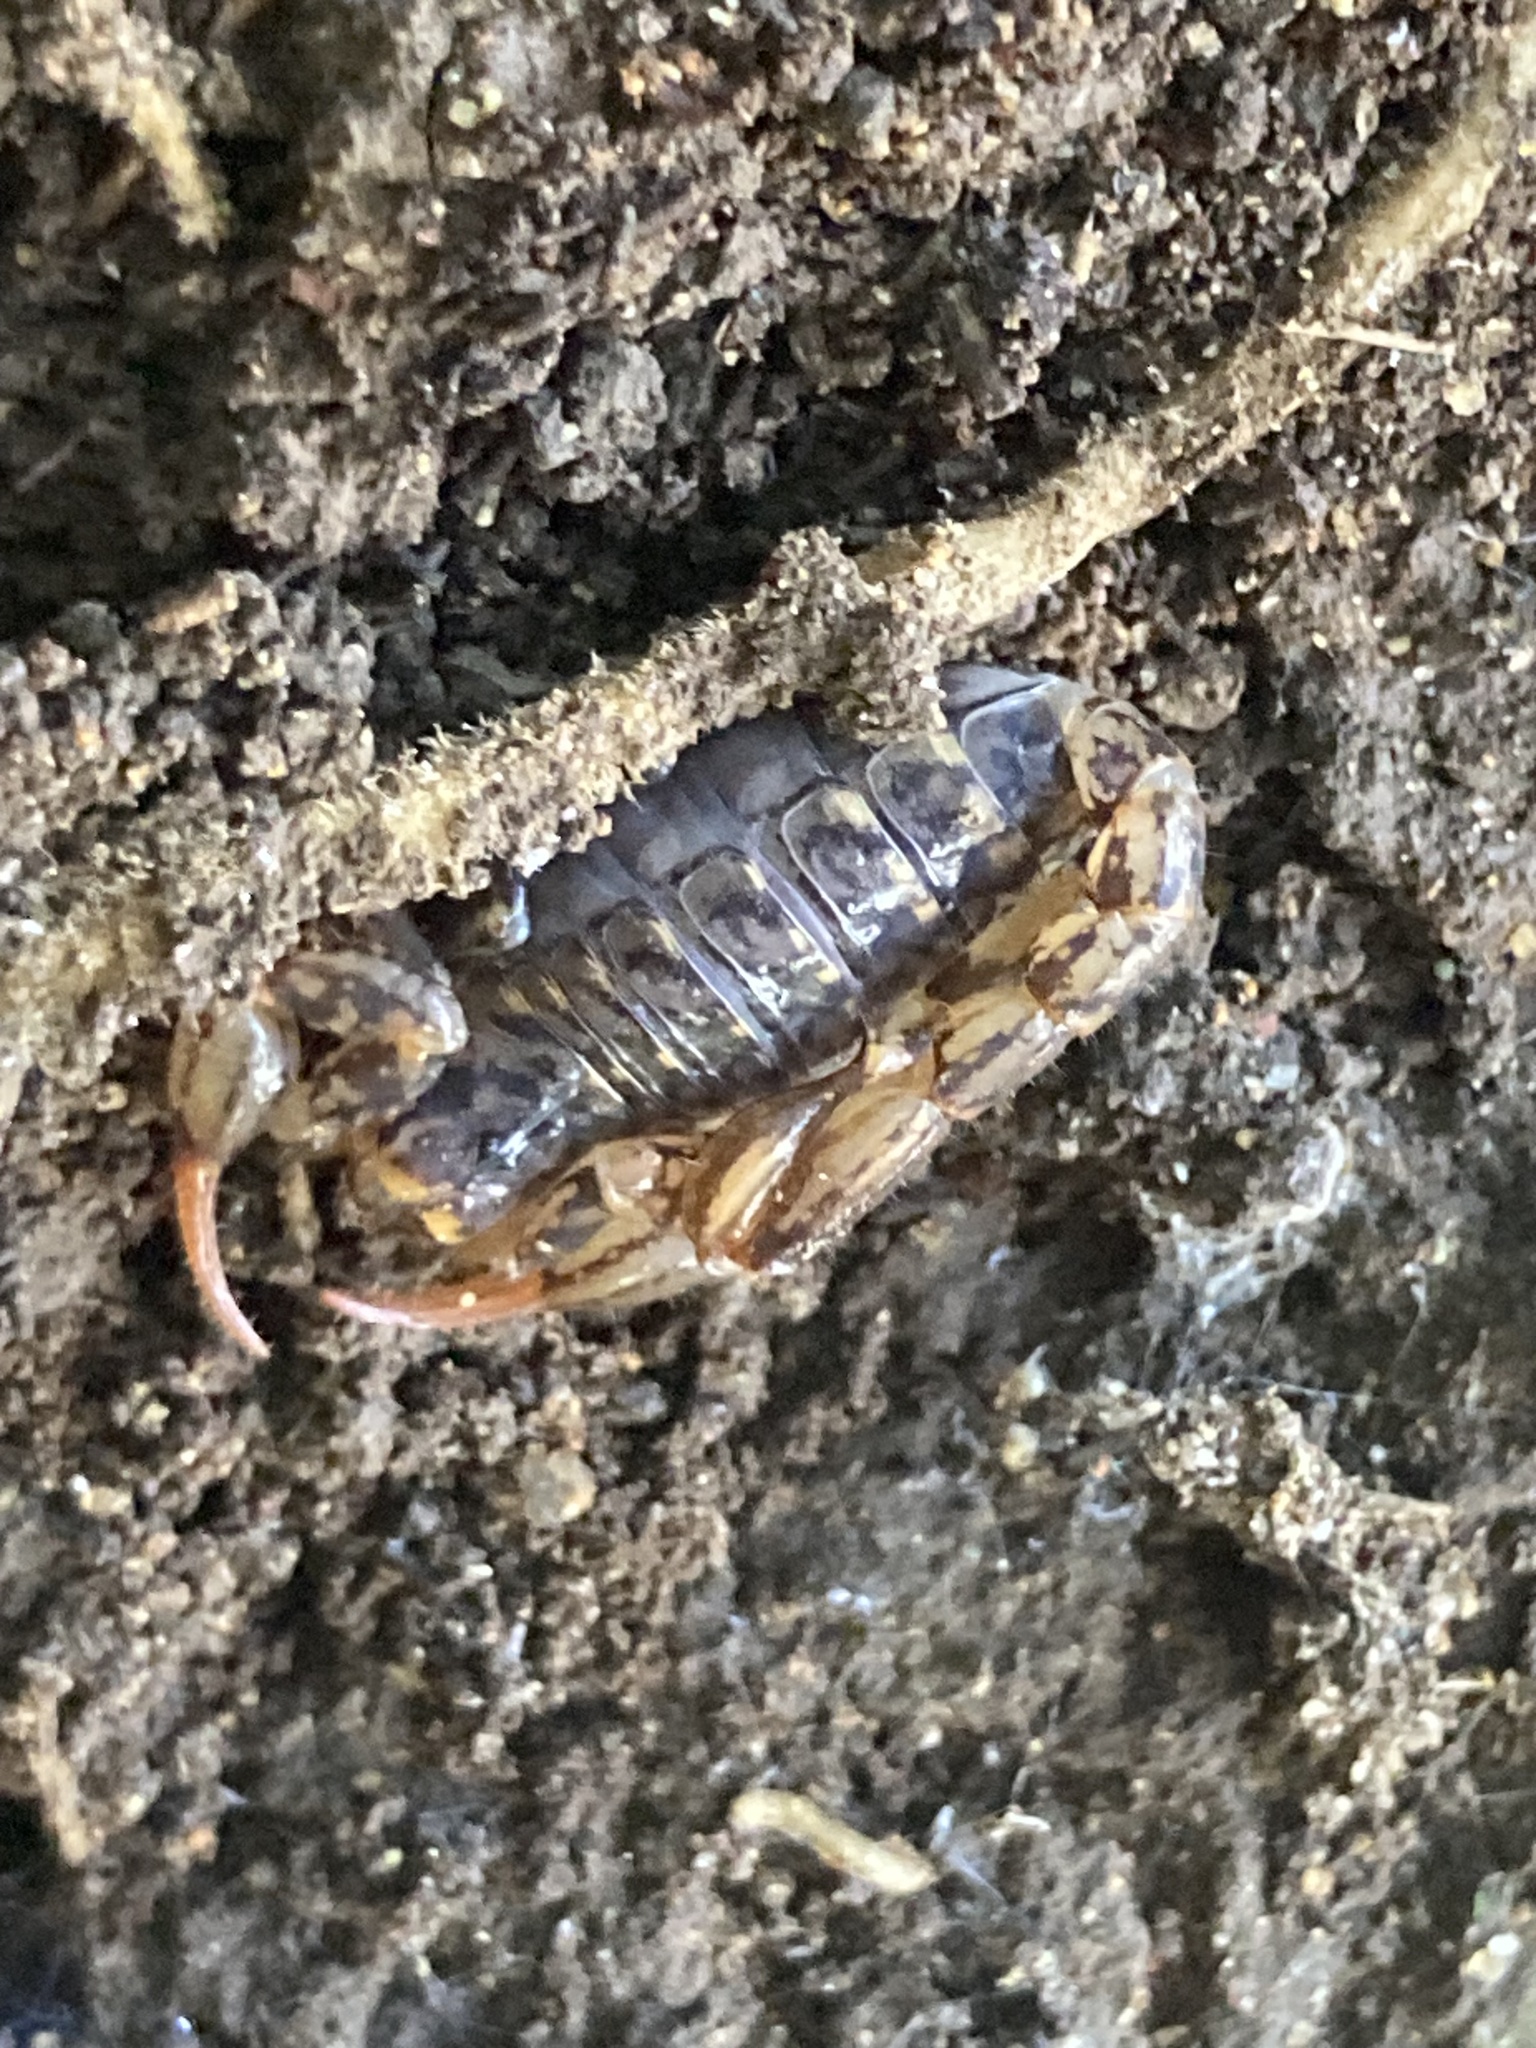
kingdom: Animalia
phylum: Arthropoda
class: Arachnida
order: Scorpiones
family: Bothriuridae
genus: Cercophonius
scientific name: Cercophonius squama
